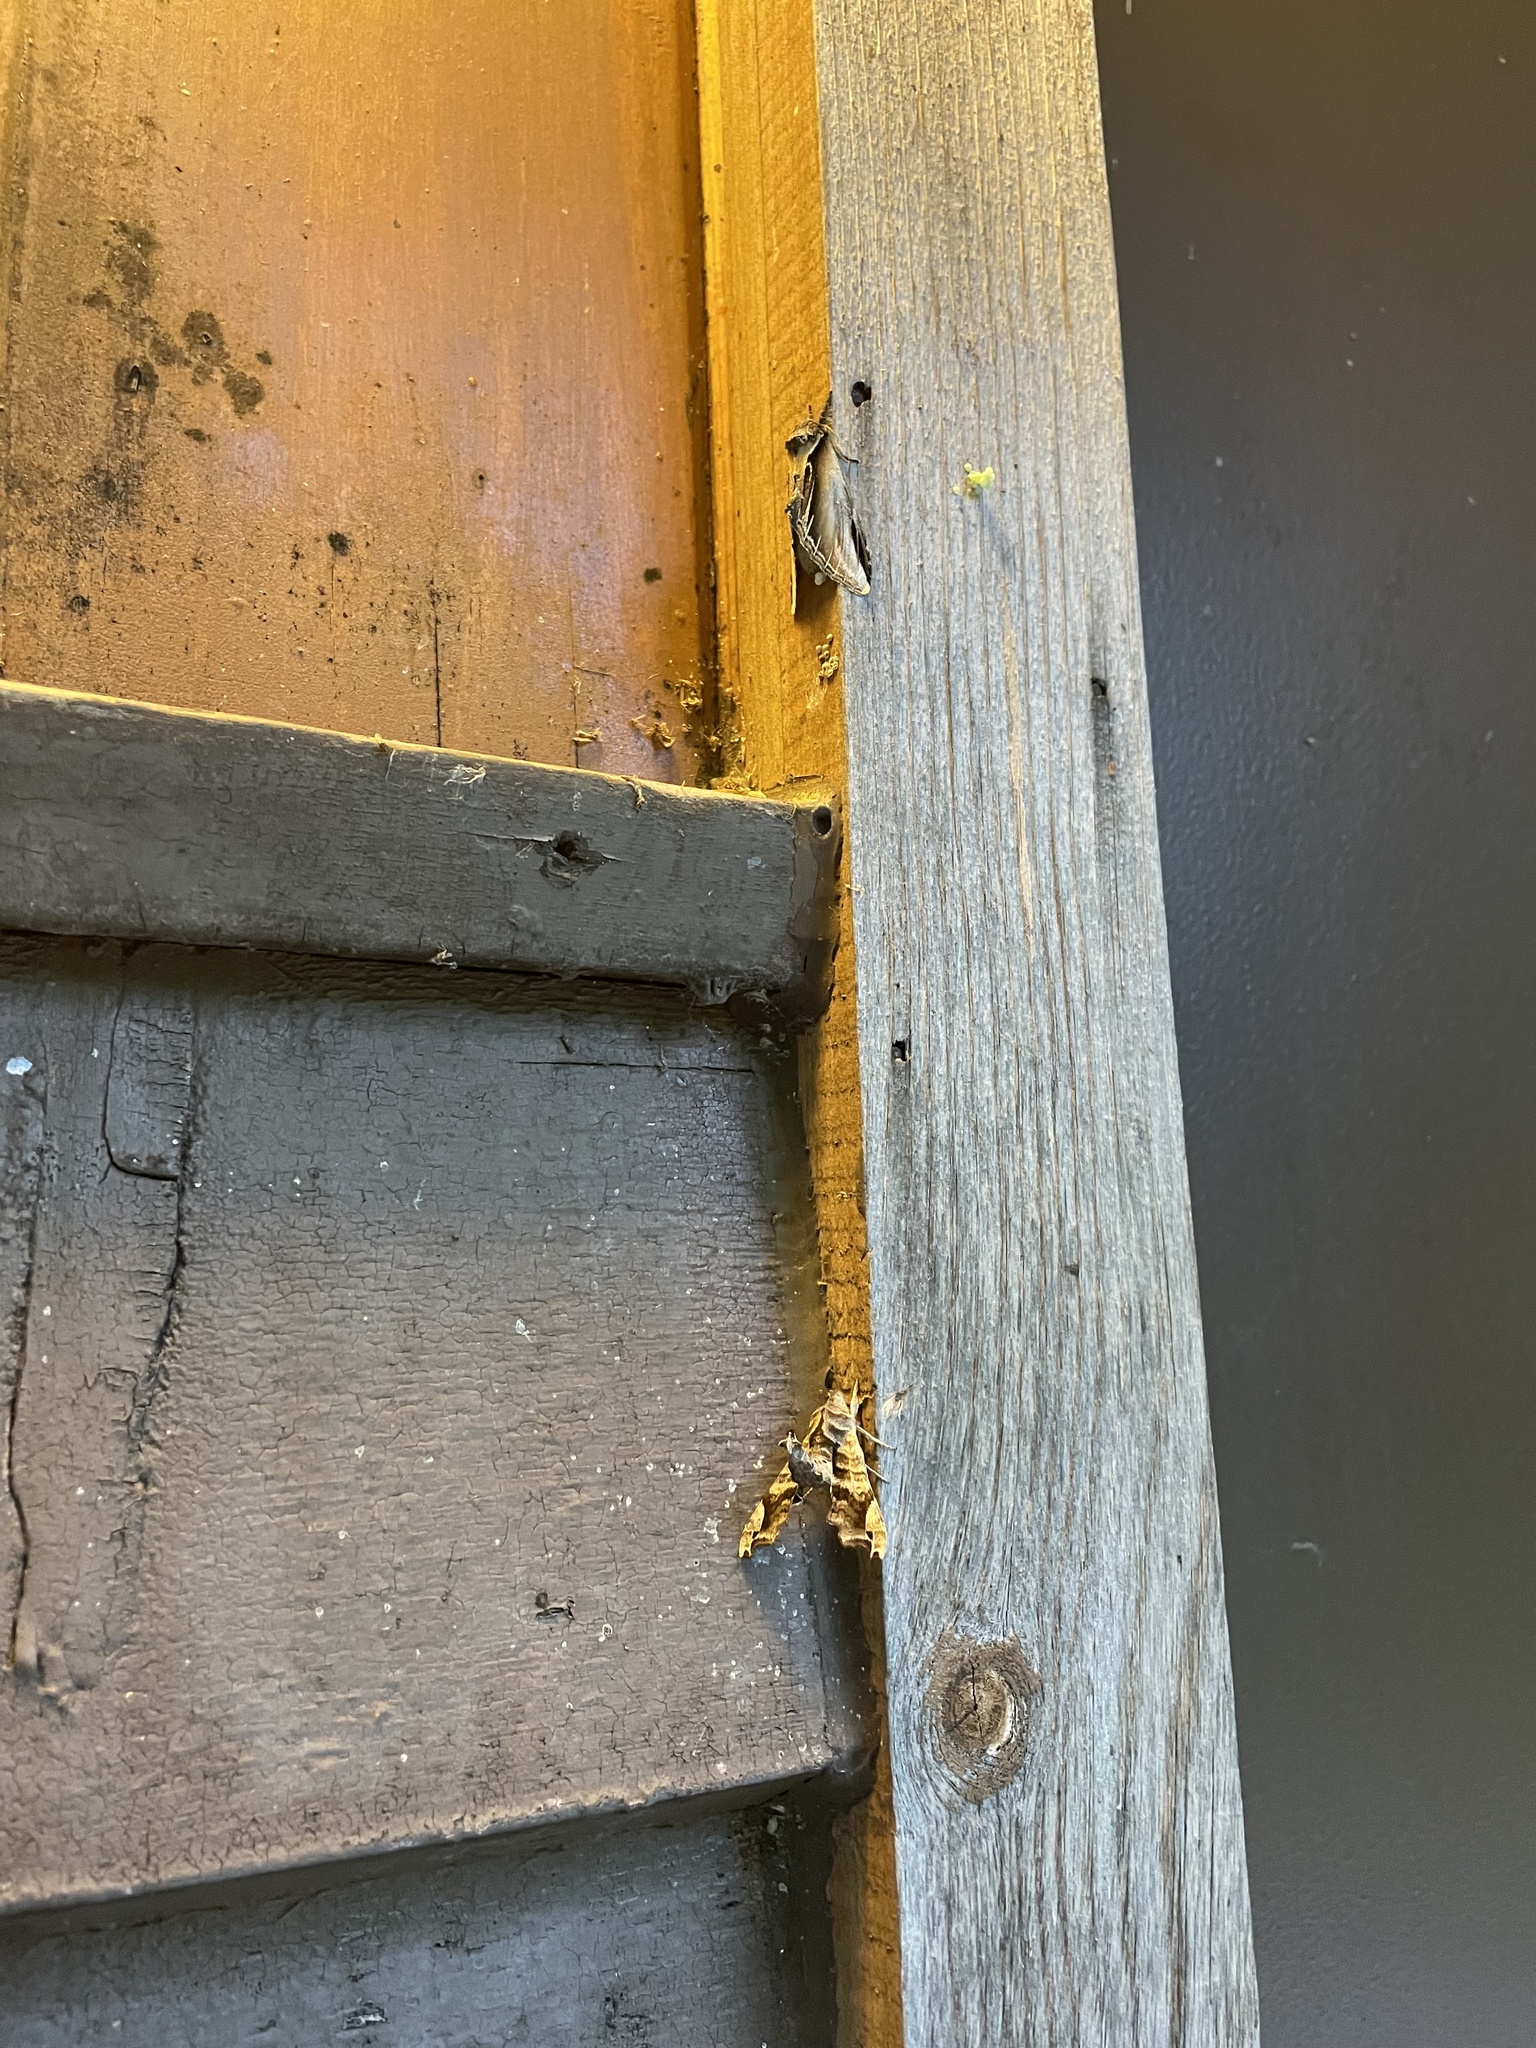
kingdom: Animalia
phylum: Arthropoda
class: Insecta
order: Lepidoptera
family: Sphingidae
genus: Deidamia
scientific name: Deidamia inscriptum
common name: Lettered sphinx
